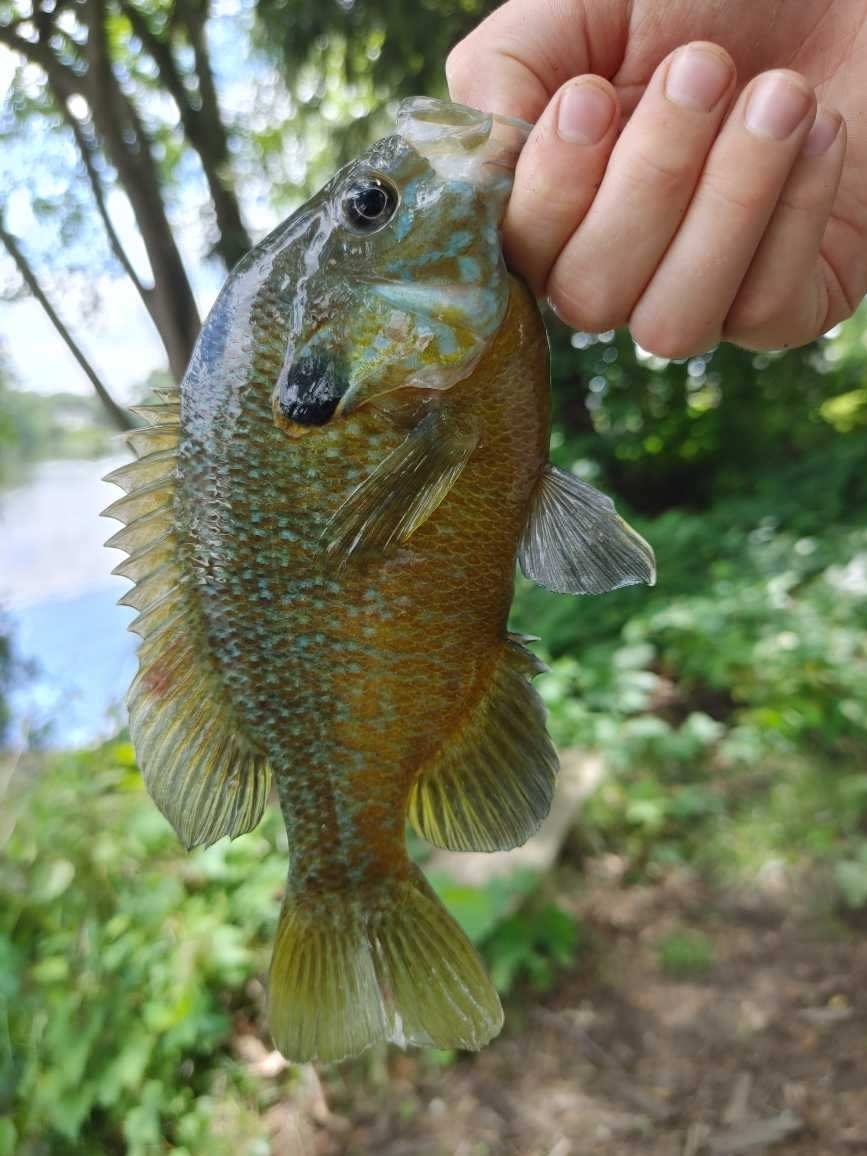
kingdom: Animalia
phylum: Chordata
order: Perciformes
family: Centrarchidae
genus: Lepomis
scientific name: Lepomis
